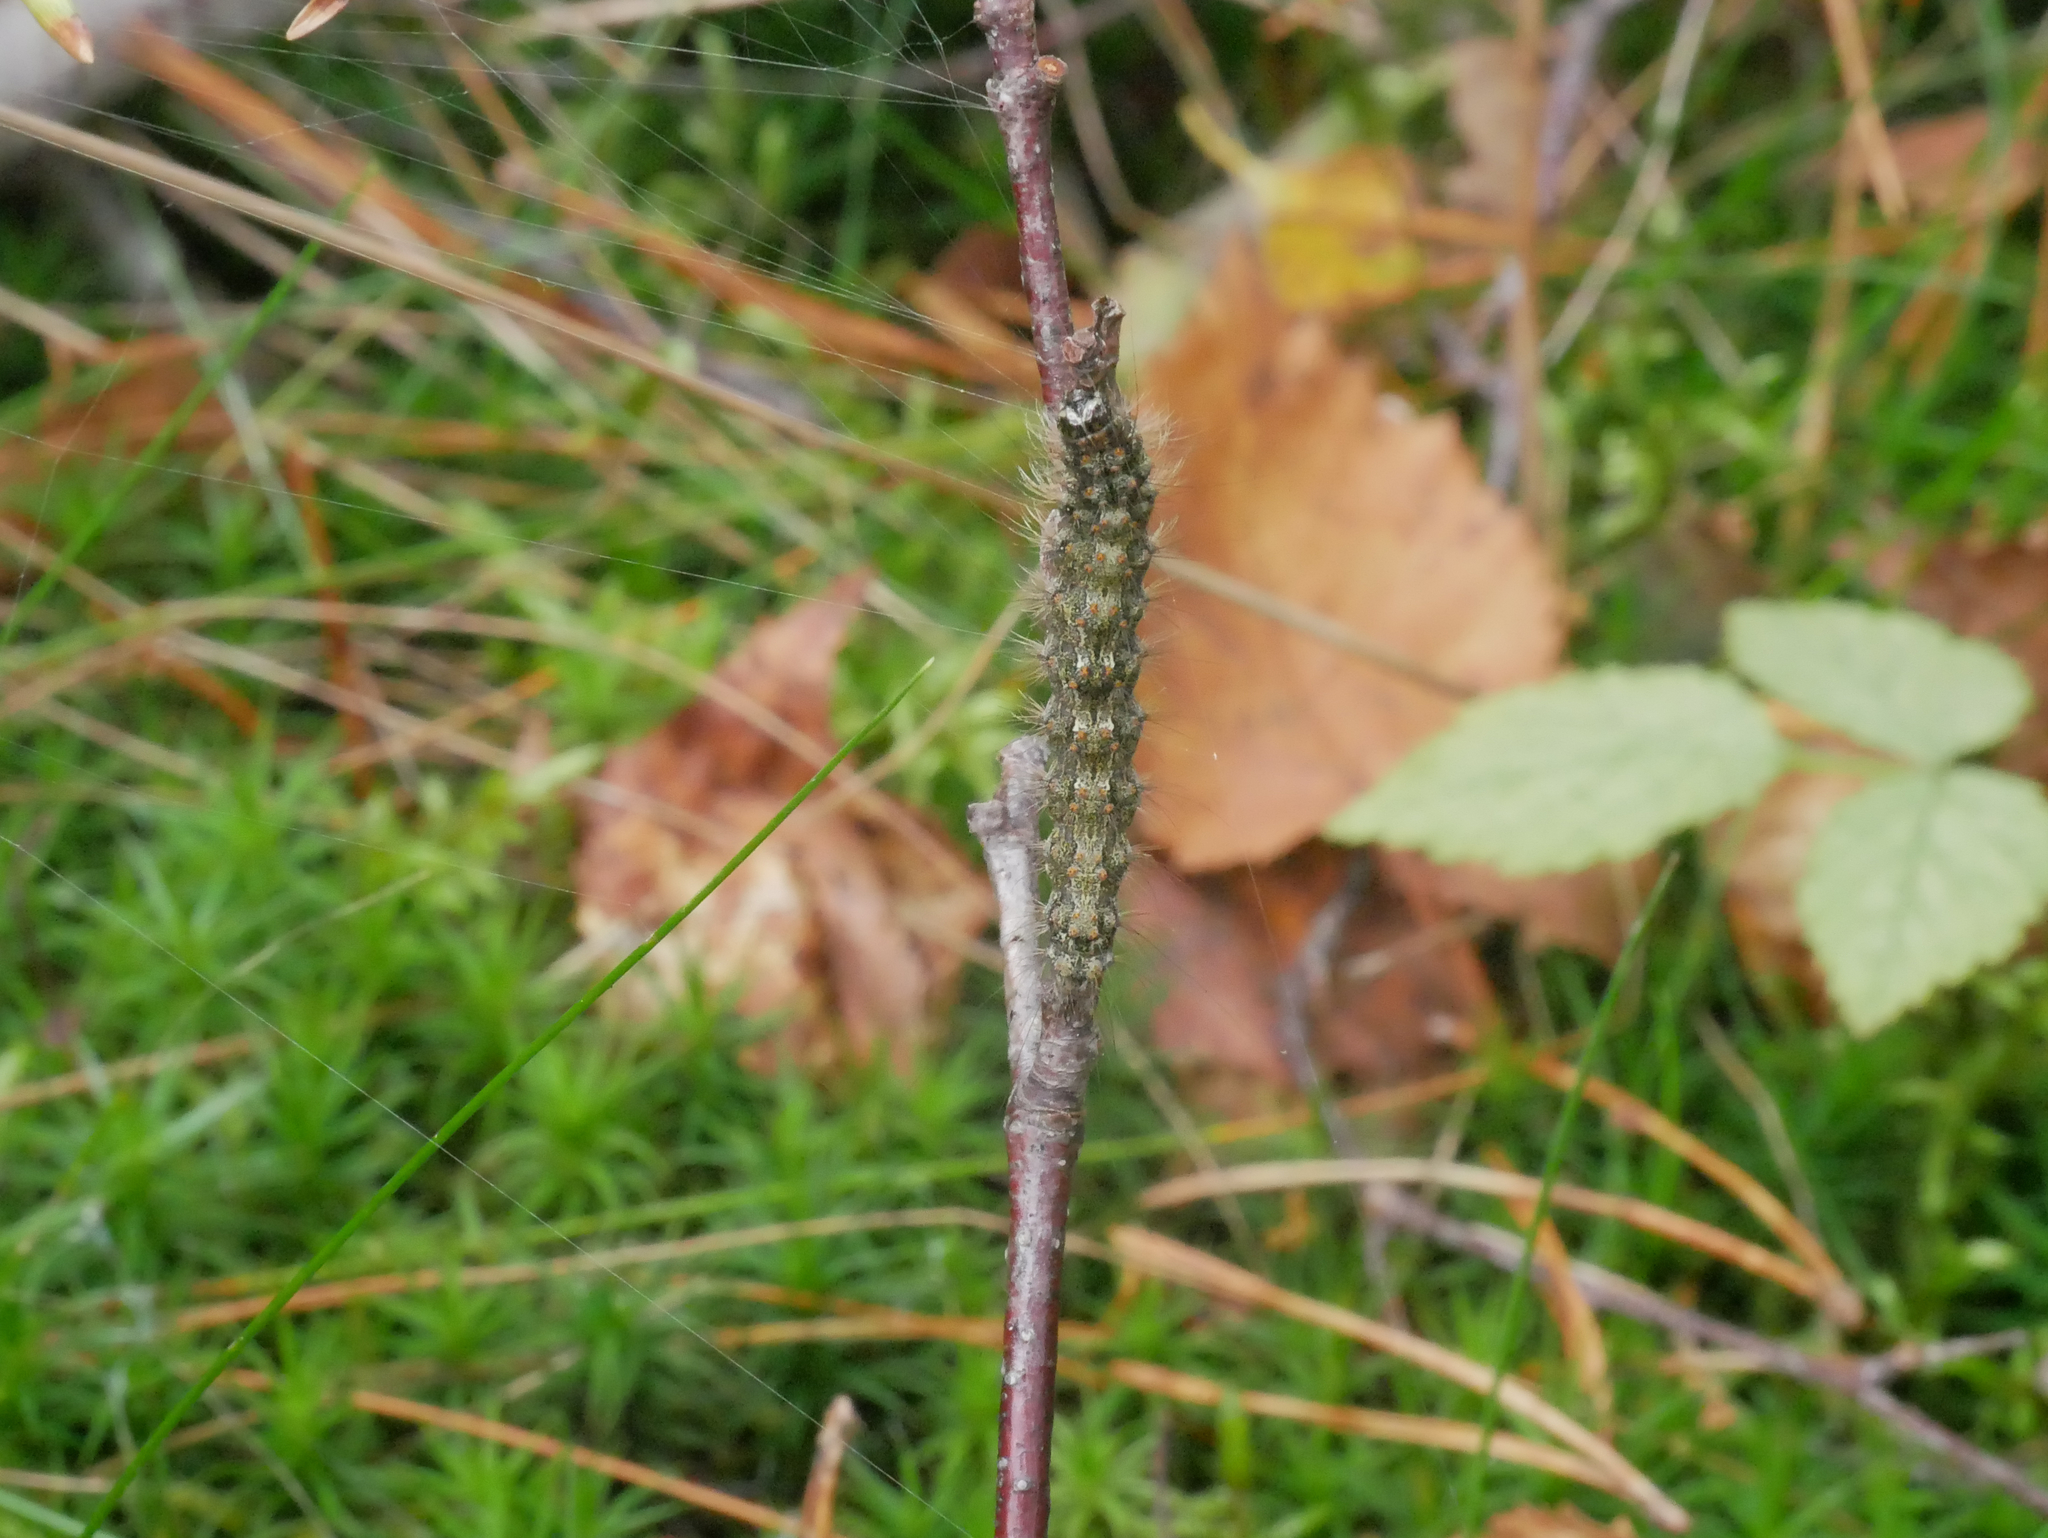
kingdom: Animalia
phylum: Arthropoda
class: Insecta
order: Lepidoptera
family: Erebidae
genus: Atolmis
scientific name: Atolmis rubricollis
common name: Red-necked footman
